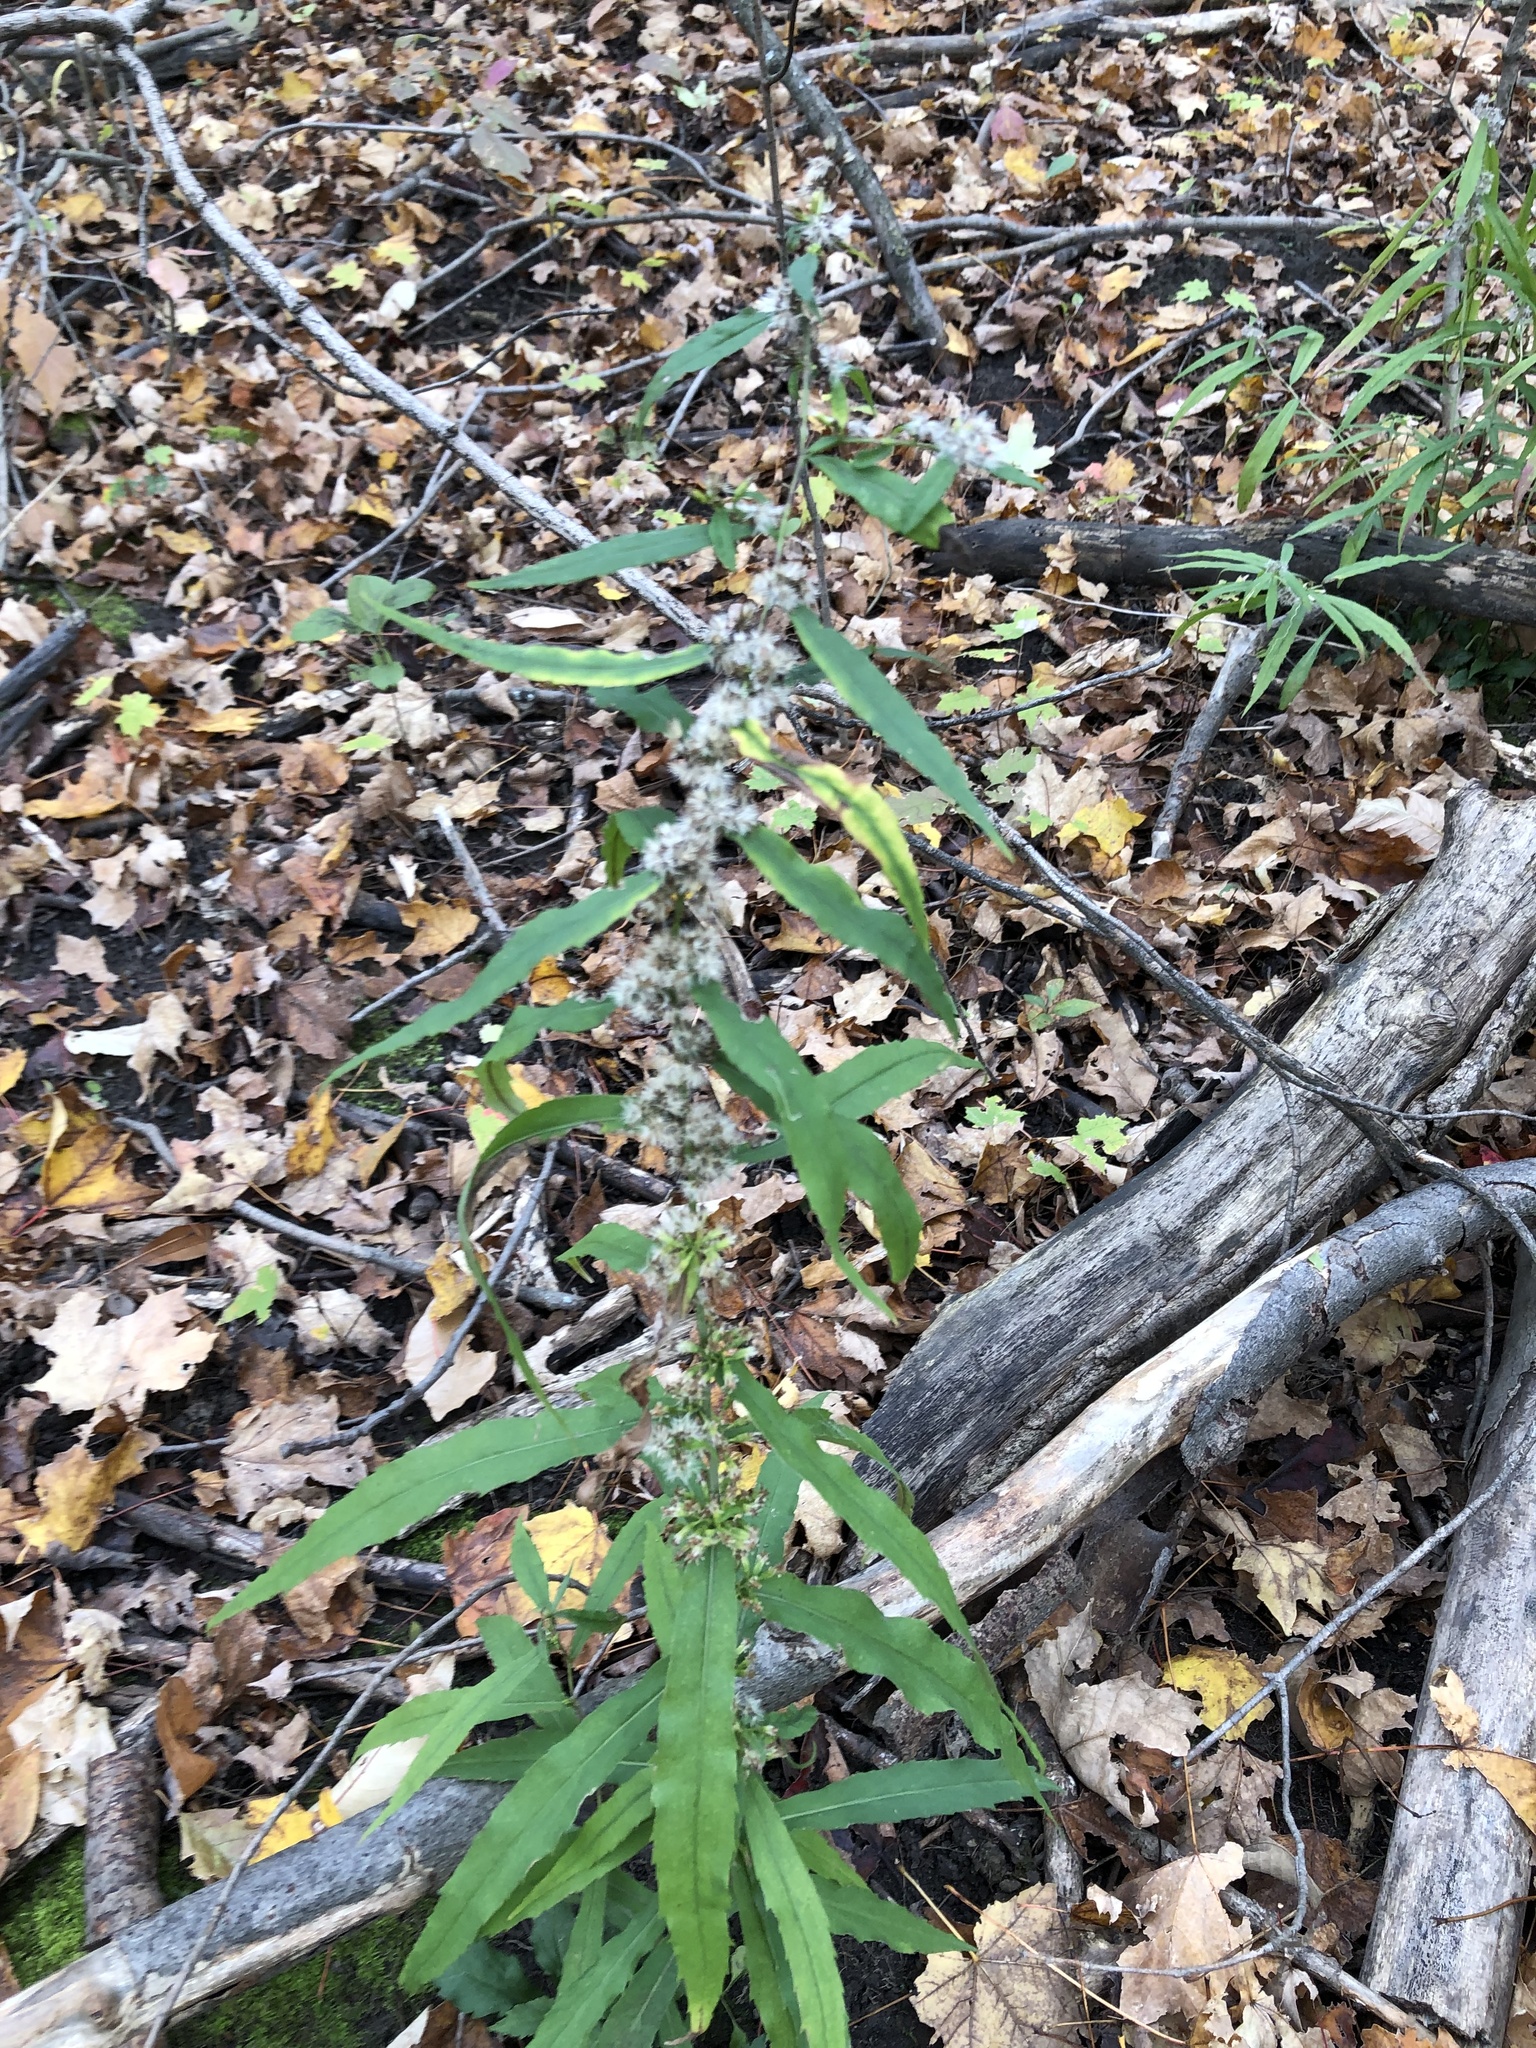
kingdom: Plantae
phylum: Tracheophyta
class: Magnoliopsida
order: Asterales
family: Asteraceae
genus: Solidago
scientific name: Solidago caesia
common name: Woodland goldenrod
